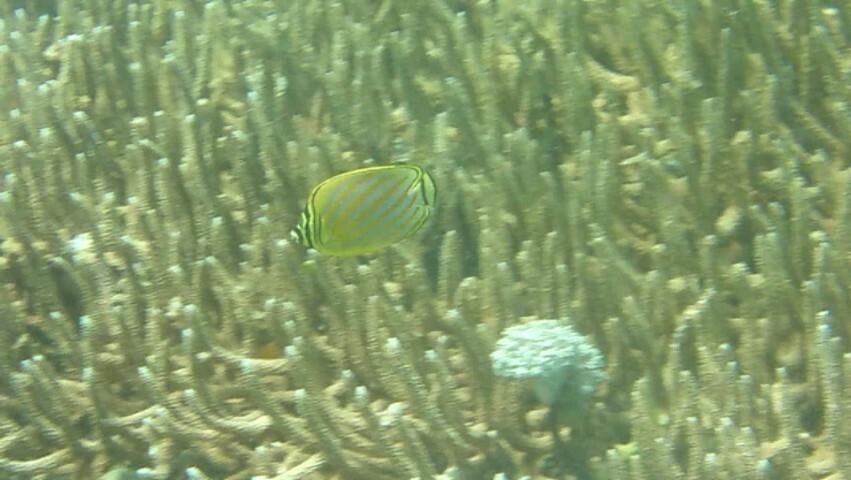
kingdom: Animalia
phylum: Chordata
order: Perciformes
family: Chaetodontidae
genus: Chaetodon
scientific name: Chaetodon ornatissimus
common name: Ornate butterflyfish
